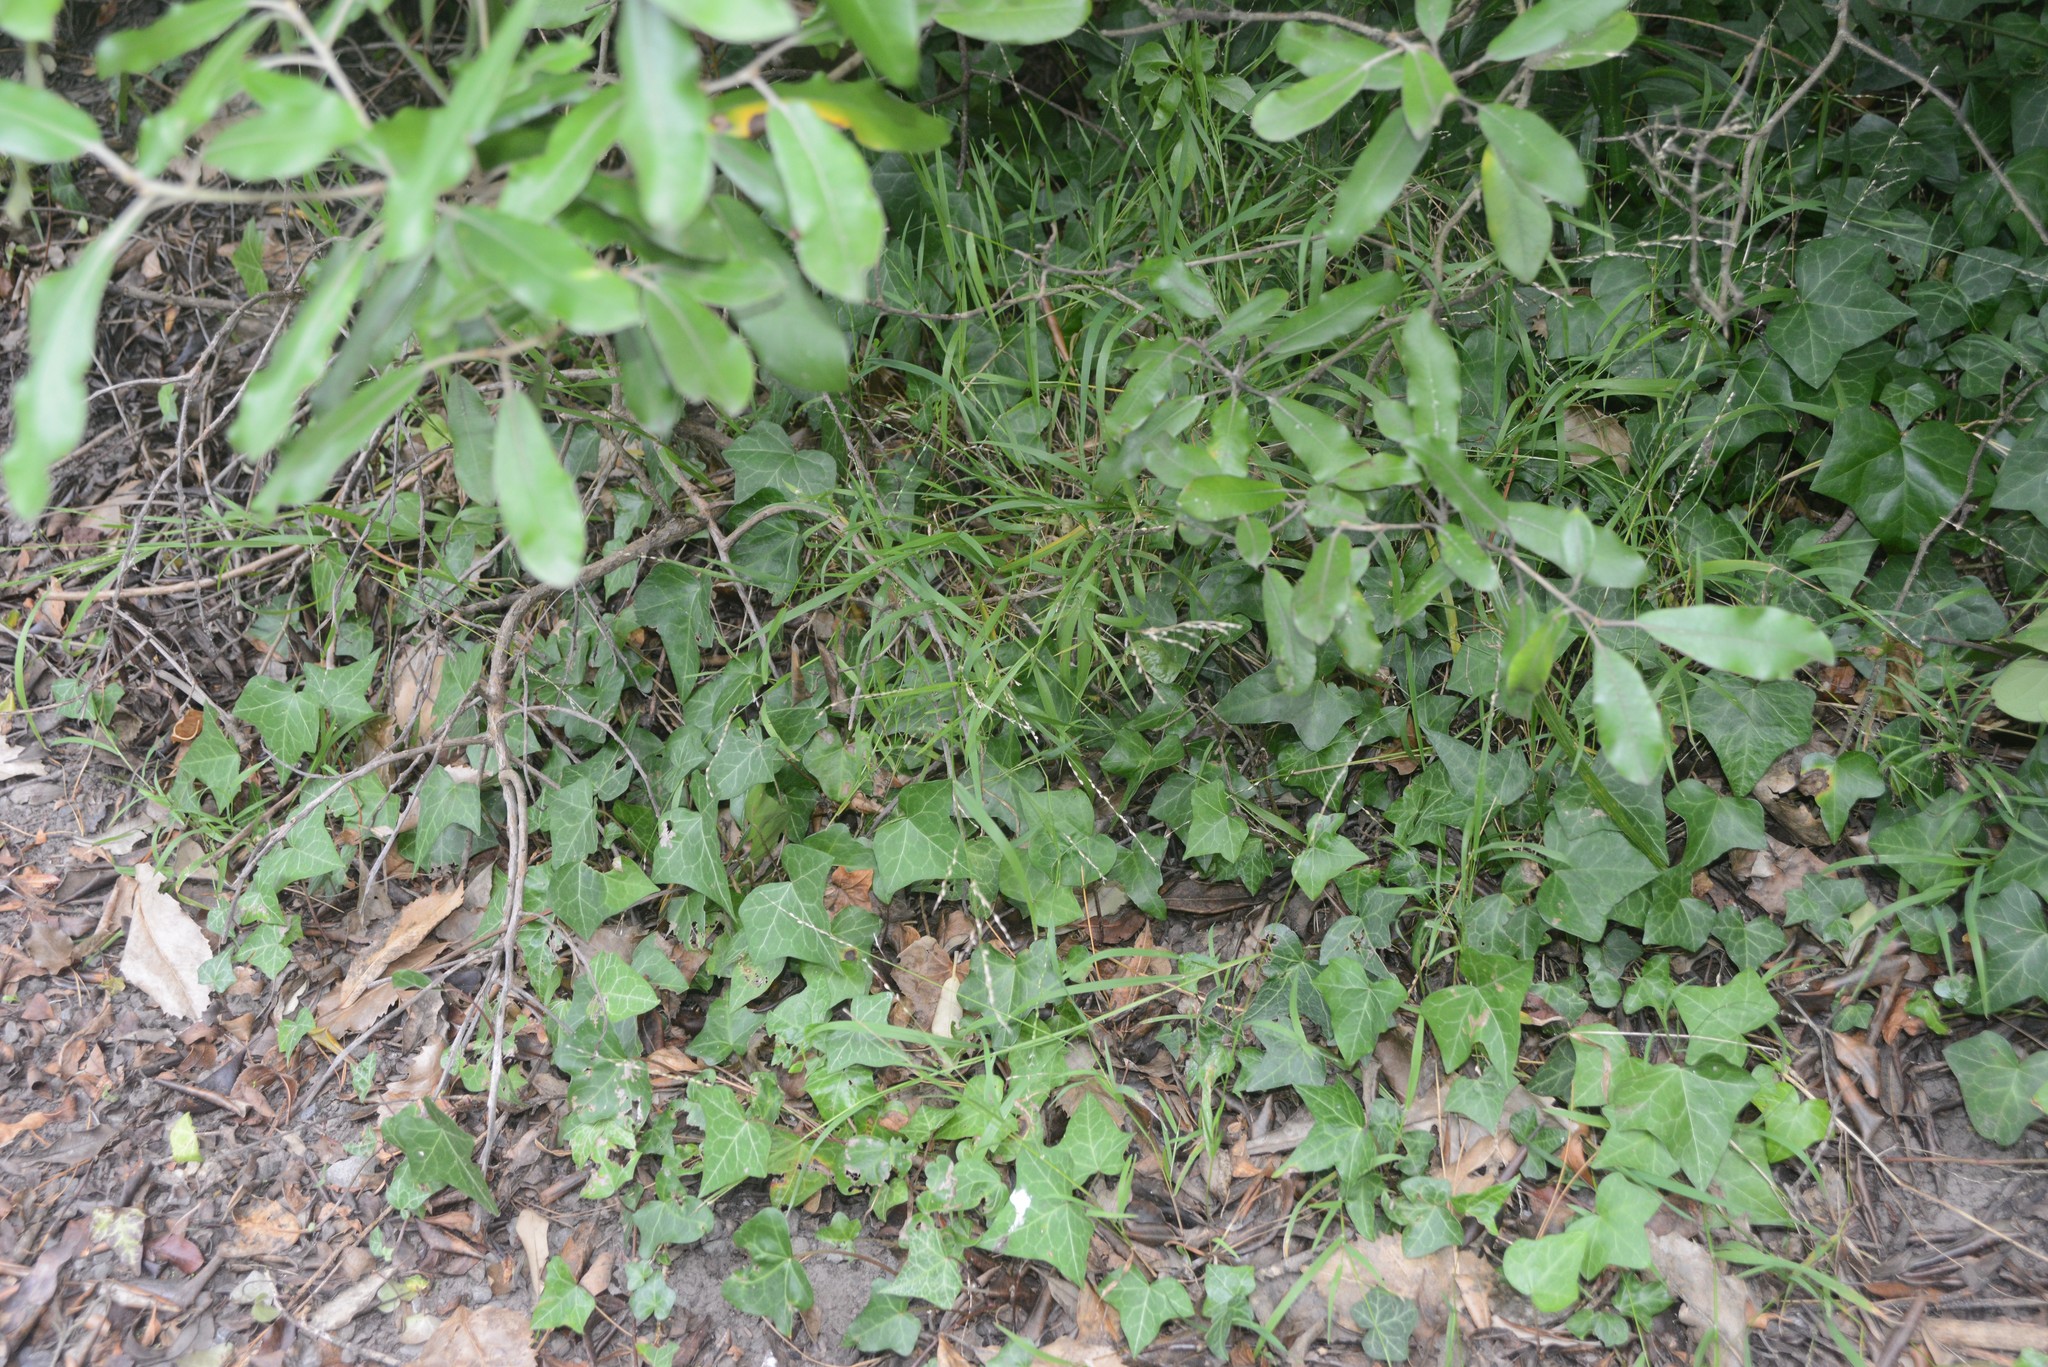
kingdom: Plantae
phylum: Tracheophyta
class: Liliopsida
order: Poales
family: Poaceae
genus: Ehrharta
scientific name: Ehrharta erecta
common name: Panic veldtgrass
